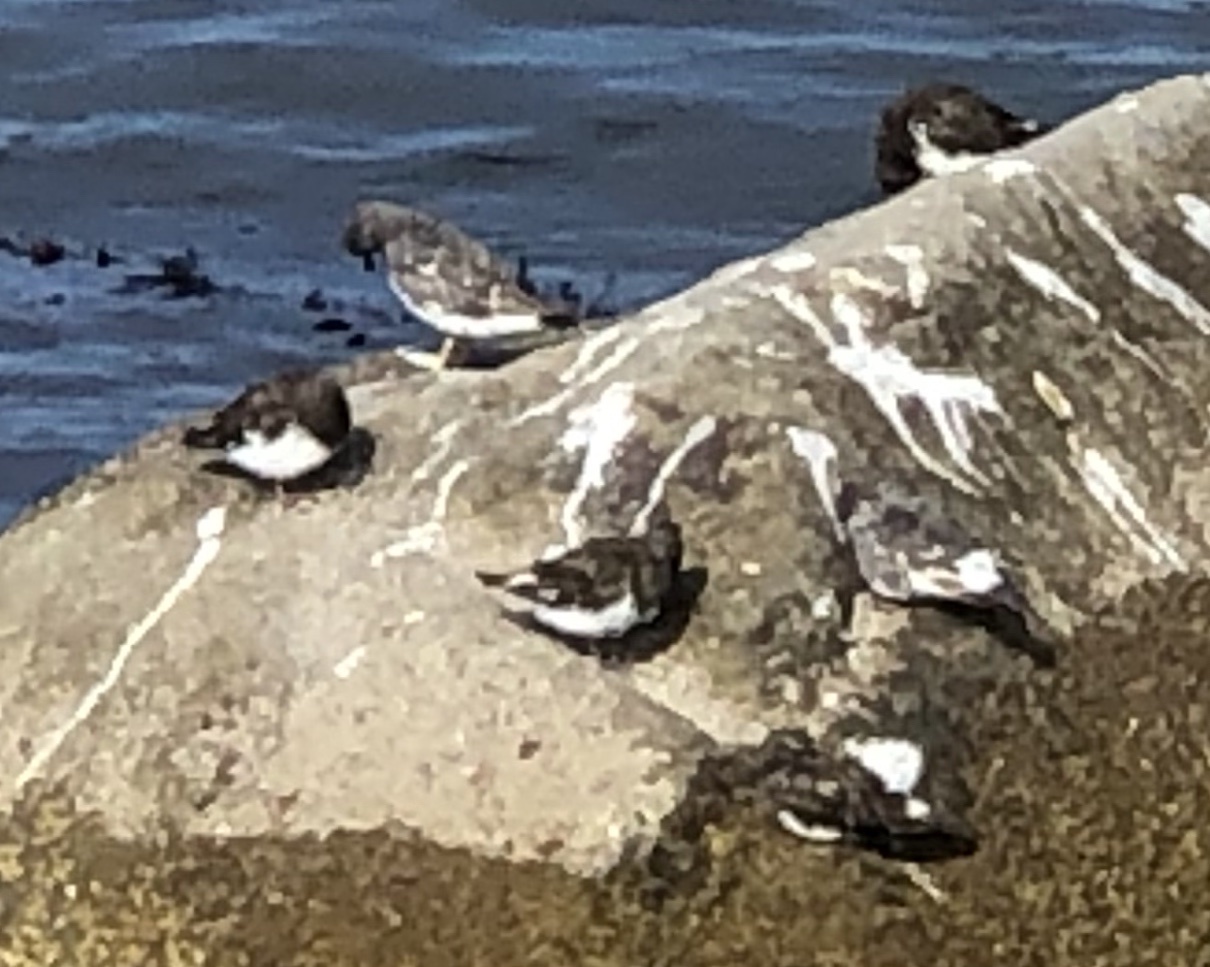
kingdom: Animalia
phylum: Chordata
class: Aves
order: Charadriiformes
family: Scolopacidae
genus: Arenaria
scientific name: Arenaria melanocephala
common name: Black turnstone
